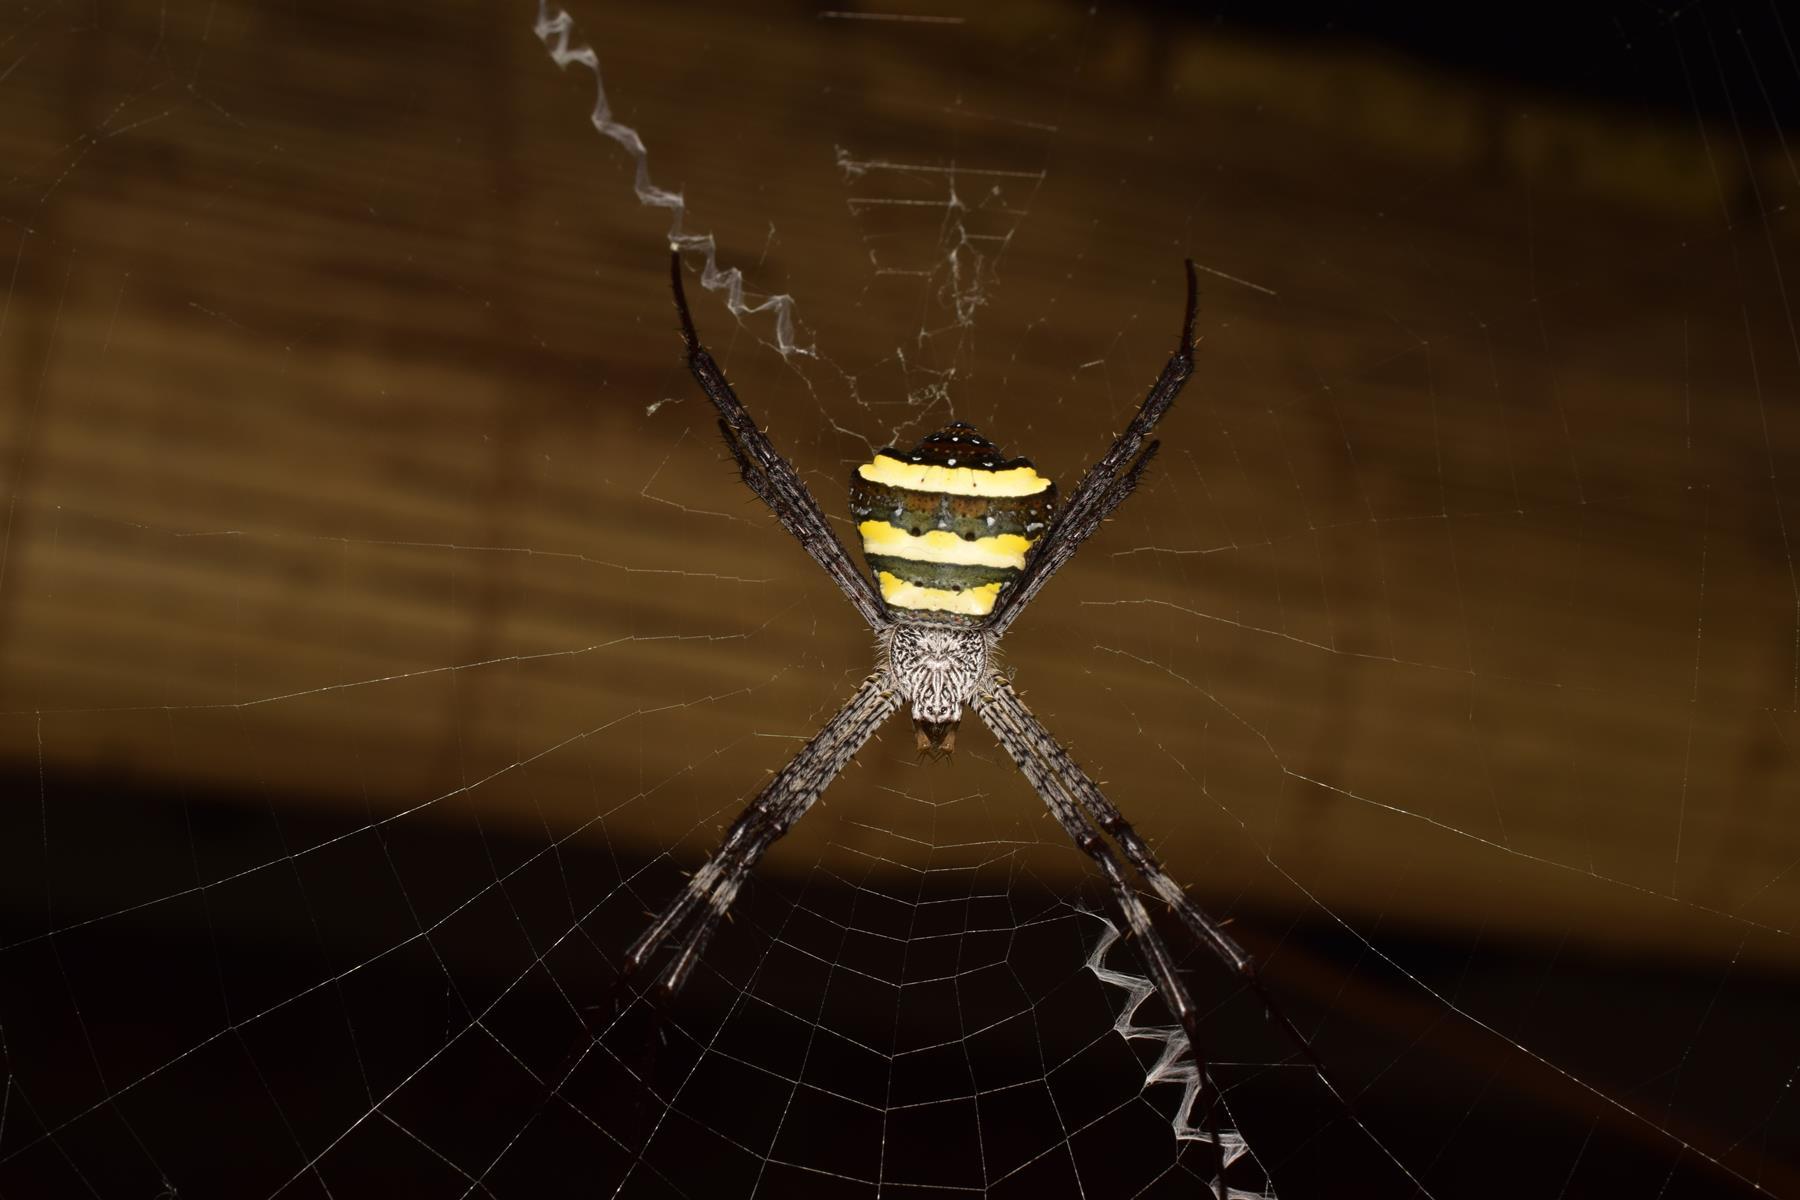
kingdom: Animalia
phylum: Arthropoda
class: Arachnida
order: Araneae
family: Araneidae
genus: Argiope
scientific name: Argiope taprobanica
